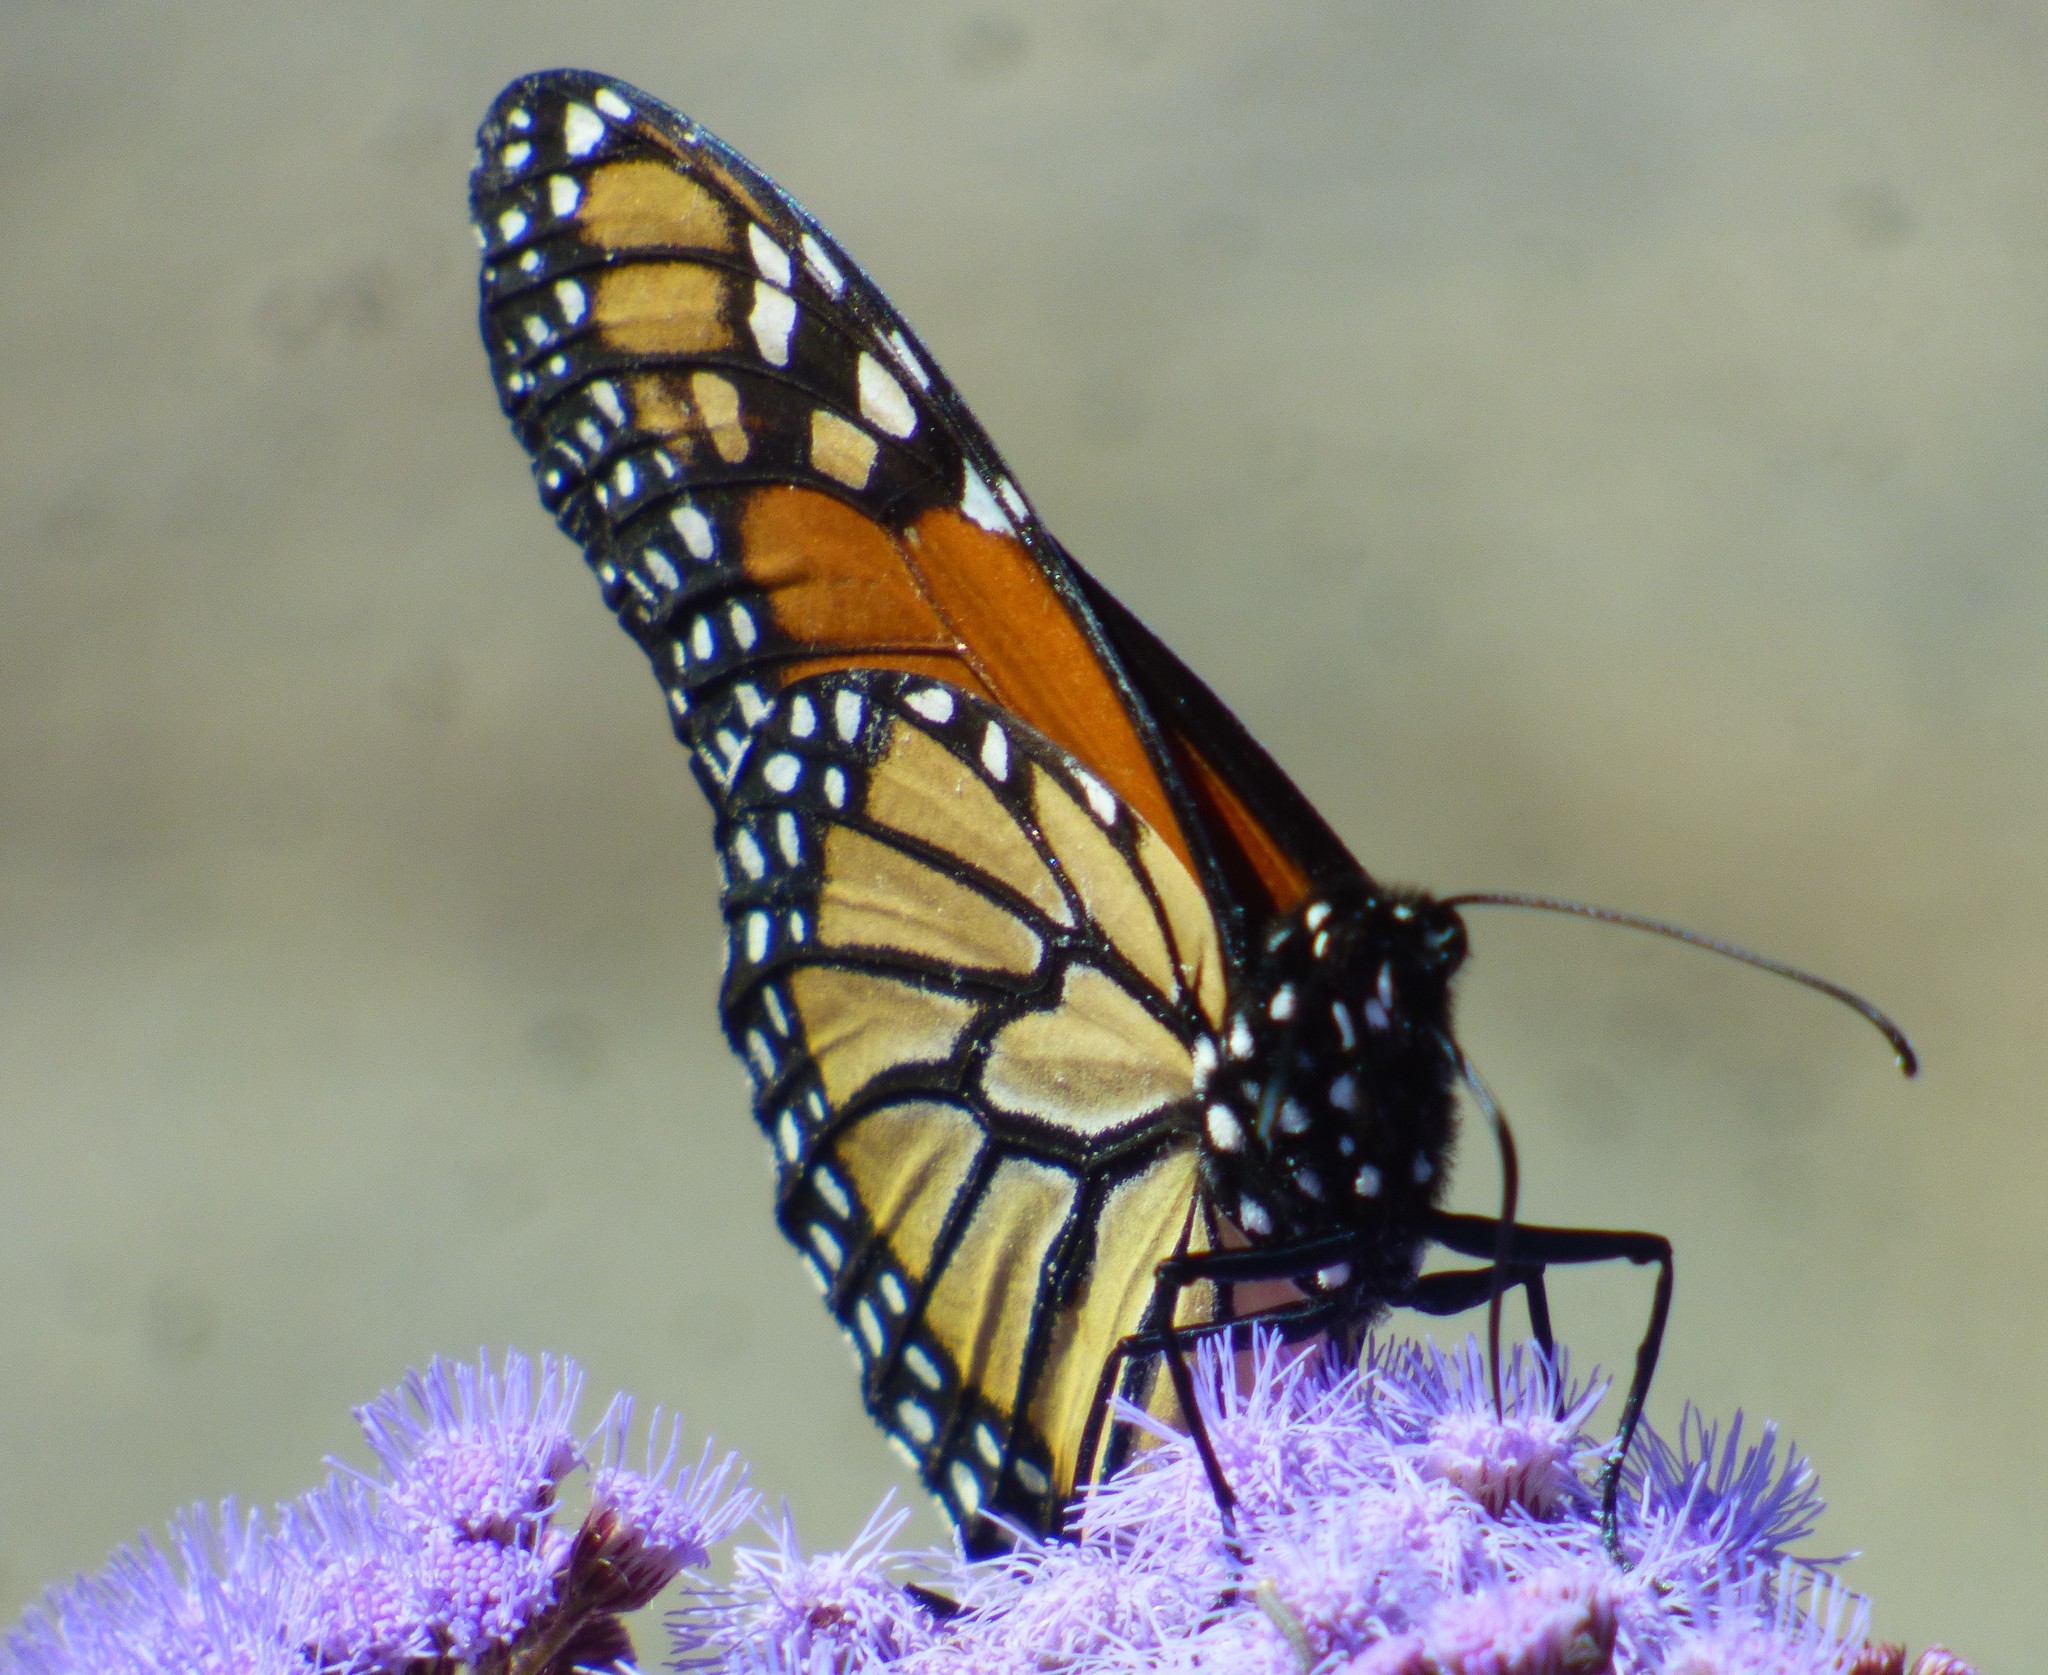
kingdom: Animalia
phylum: Arthropoda
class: Insecta
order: Lepidoptera
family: Nymphalidae
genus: Danaus
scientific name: Danaus plexippus
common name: Monarch
